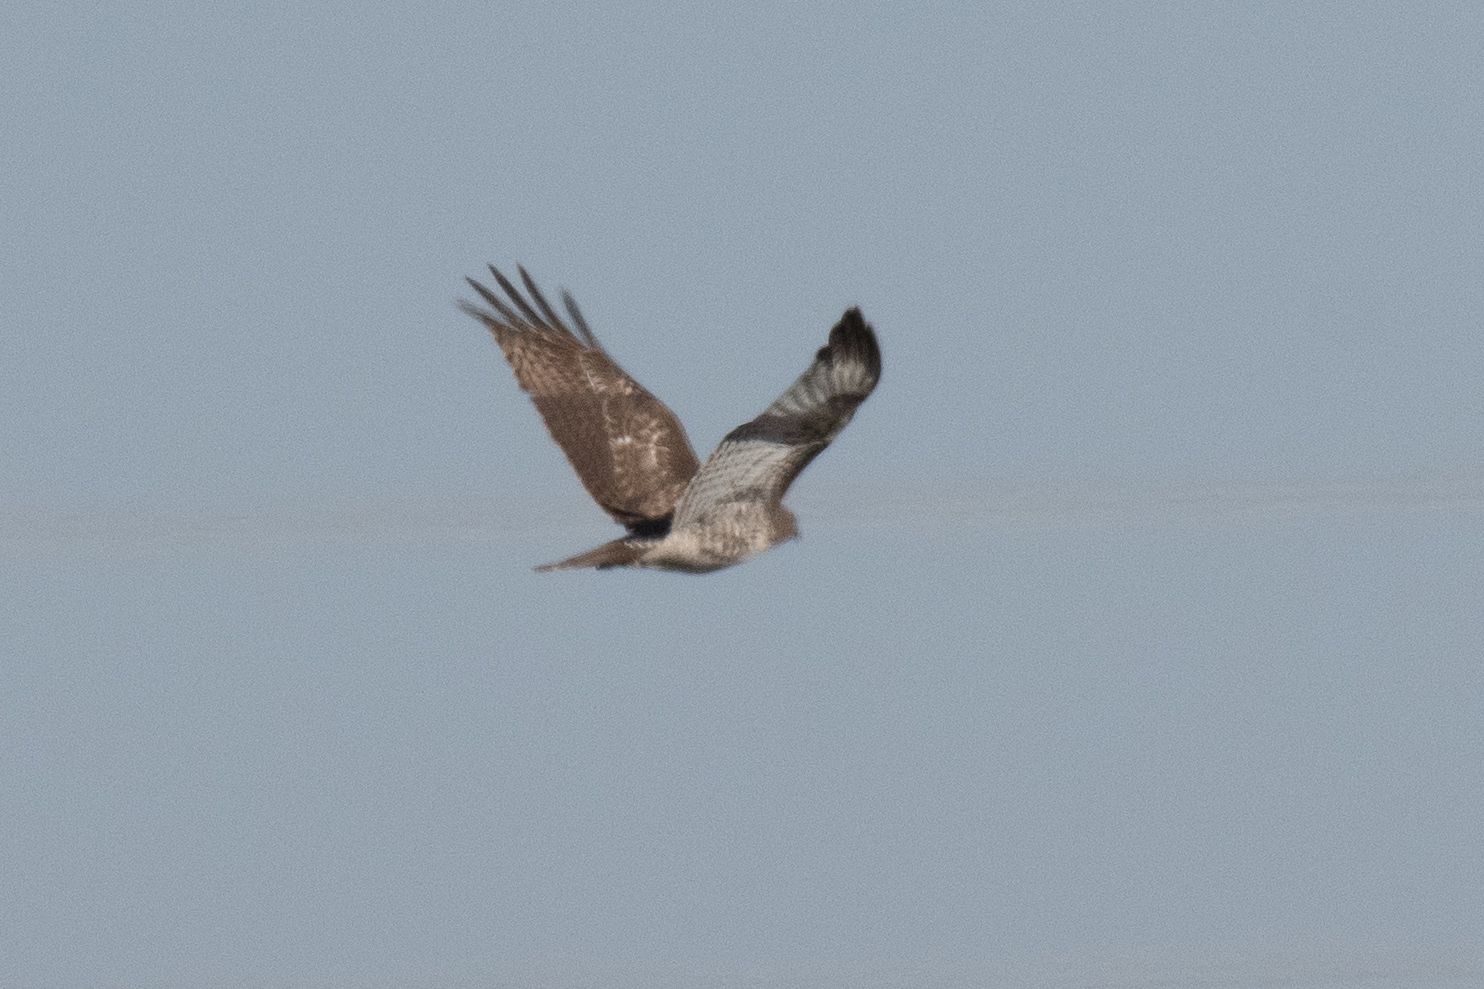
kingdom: Animalia
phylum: Chordata
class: Aves
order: Accipitriformes
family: Accipitridae
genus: Buteo
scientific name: Buteo jamaicensis
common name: Red-tailed hawk
